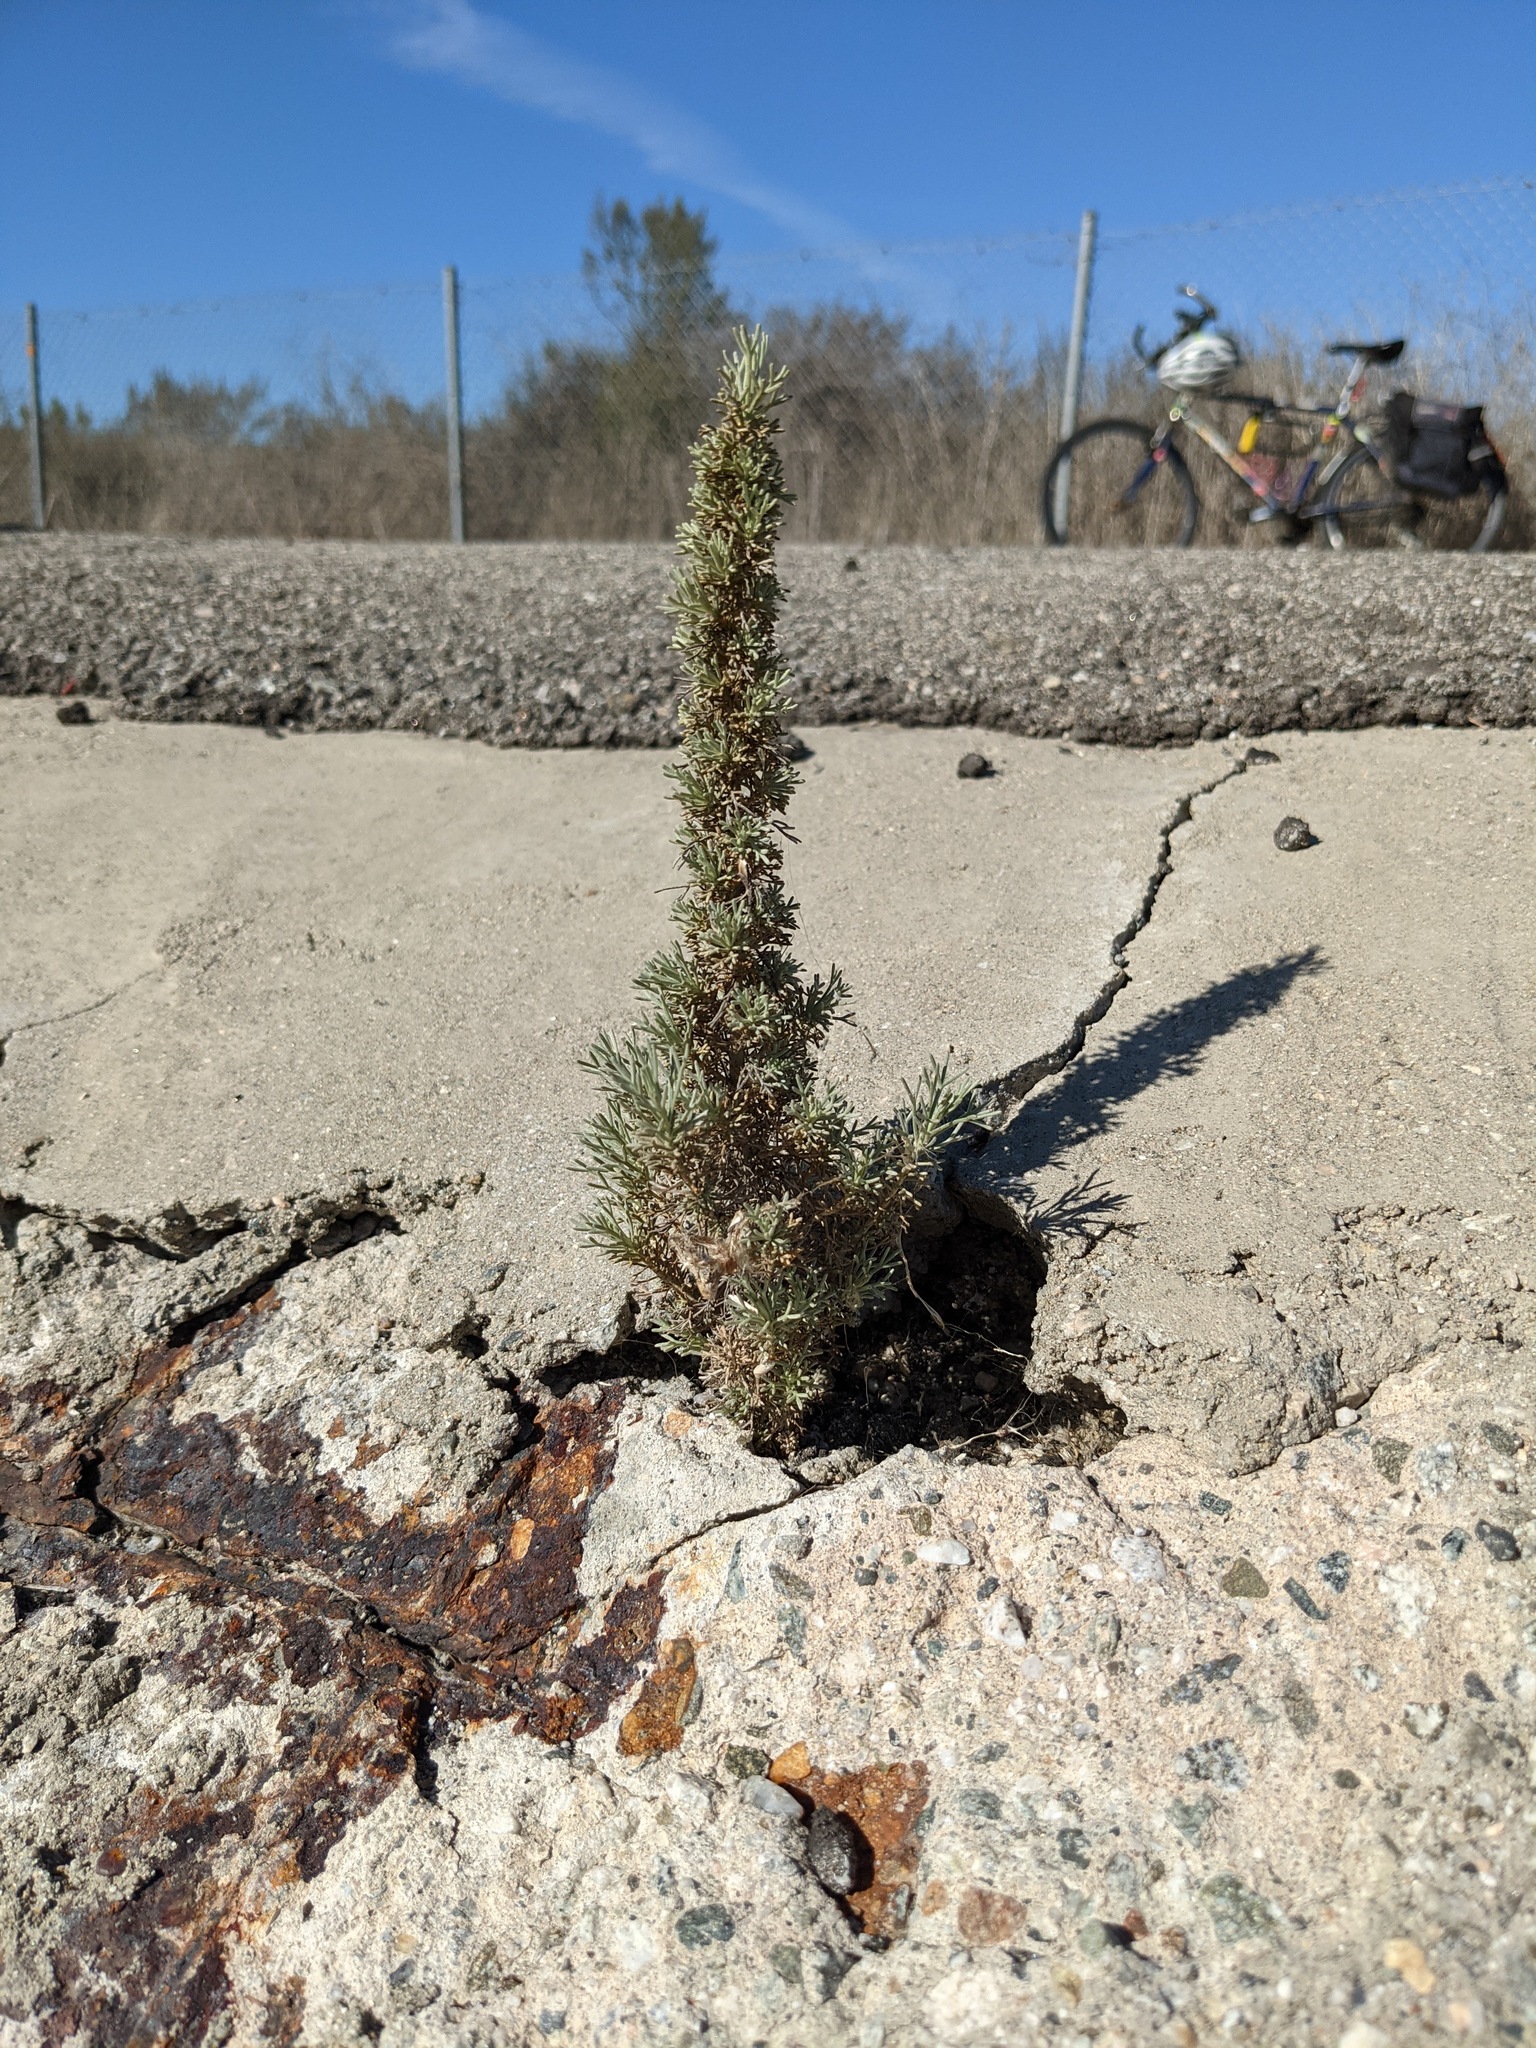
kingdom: Plantae
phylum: Tracheophyta
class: Magnoliopsida
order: Asterales
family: Asteraceae
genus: Artemisia
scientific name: Artemisia californica
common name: California sagebrush
